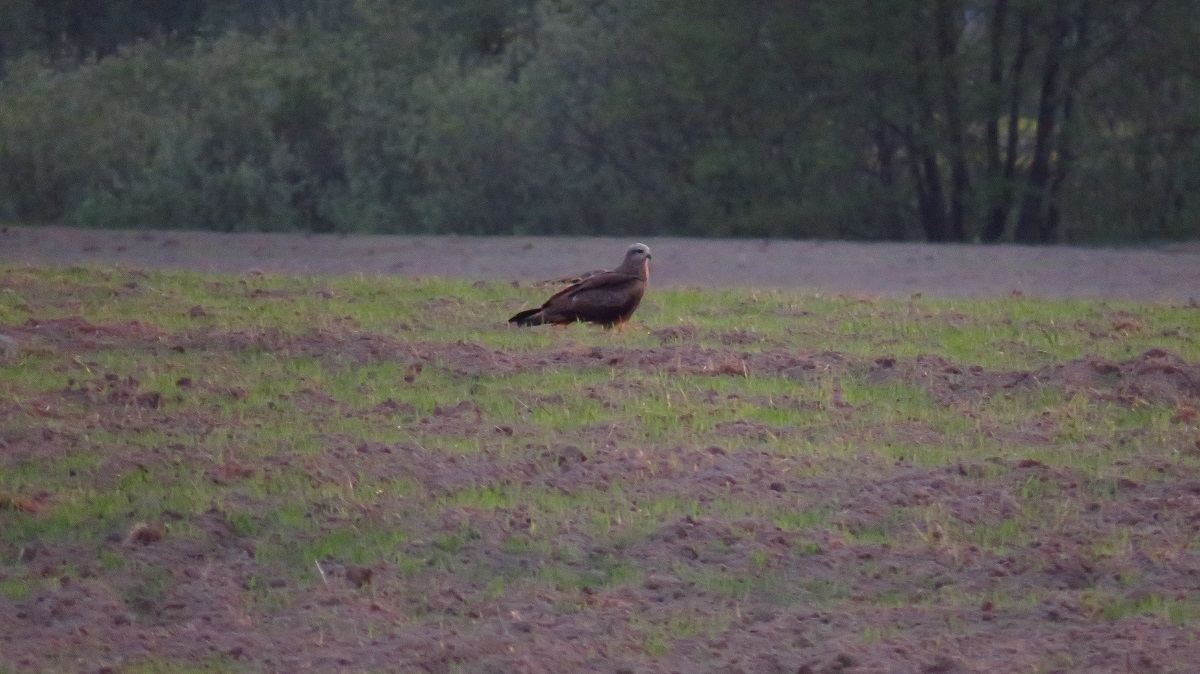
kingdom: Animalia
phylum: Chordata
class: Aves
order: Accipitriformes
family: Accipitridae
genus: Milvus
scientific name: Milvus migrans
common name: Black kite
